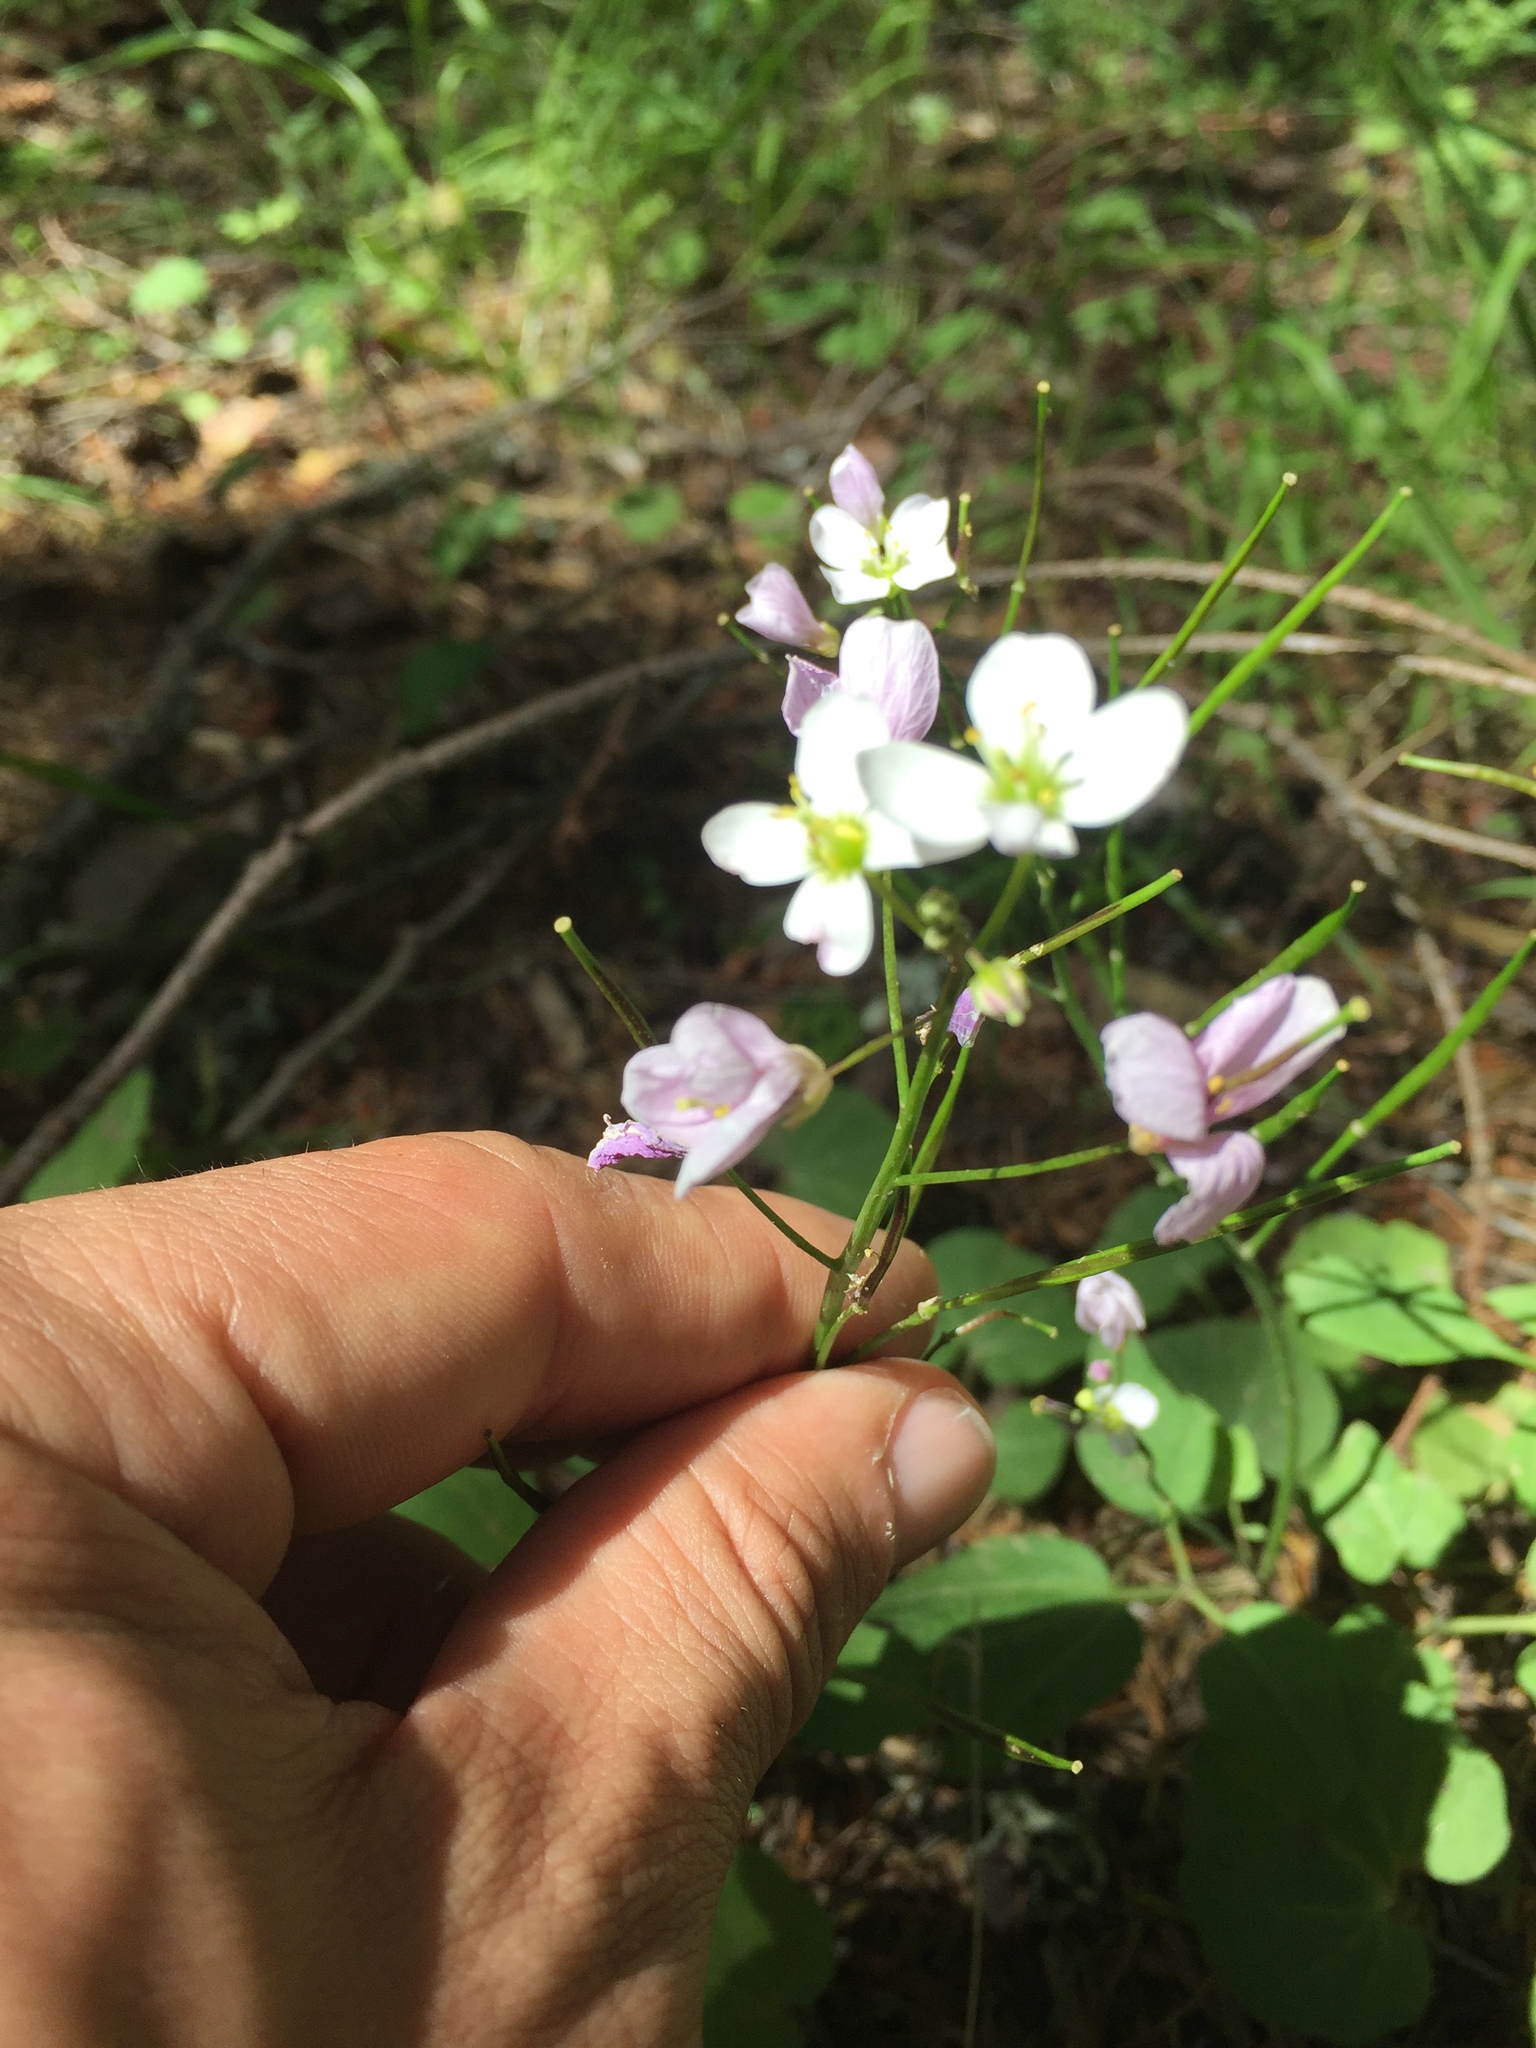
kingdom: Plantae
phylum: Tracheophyta
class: Magnoliopsida
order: Brassicales
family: Brassicaceae
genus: Cardamine
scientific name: Cardamine californica
